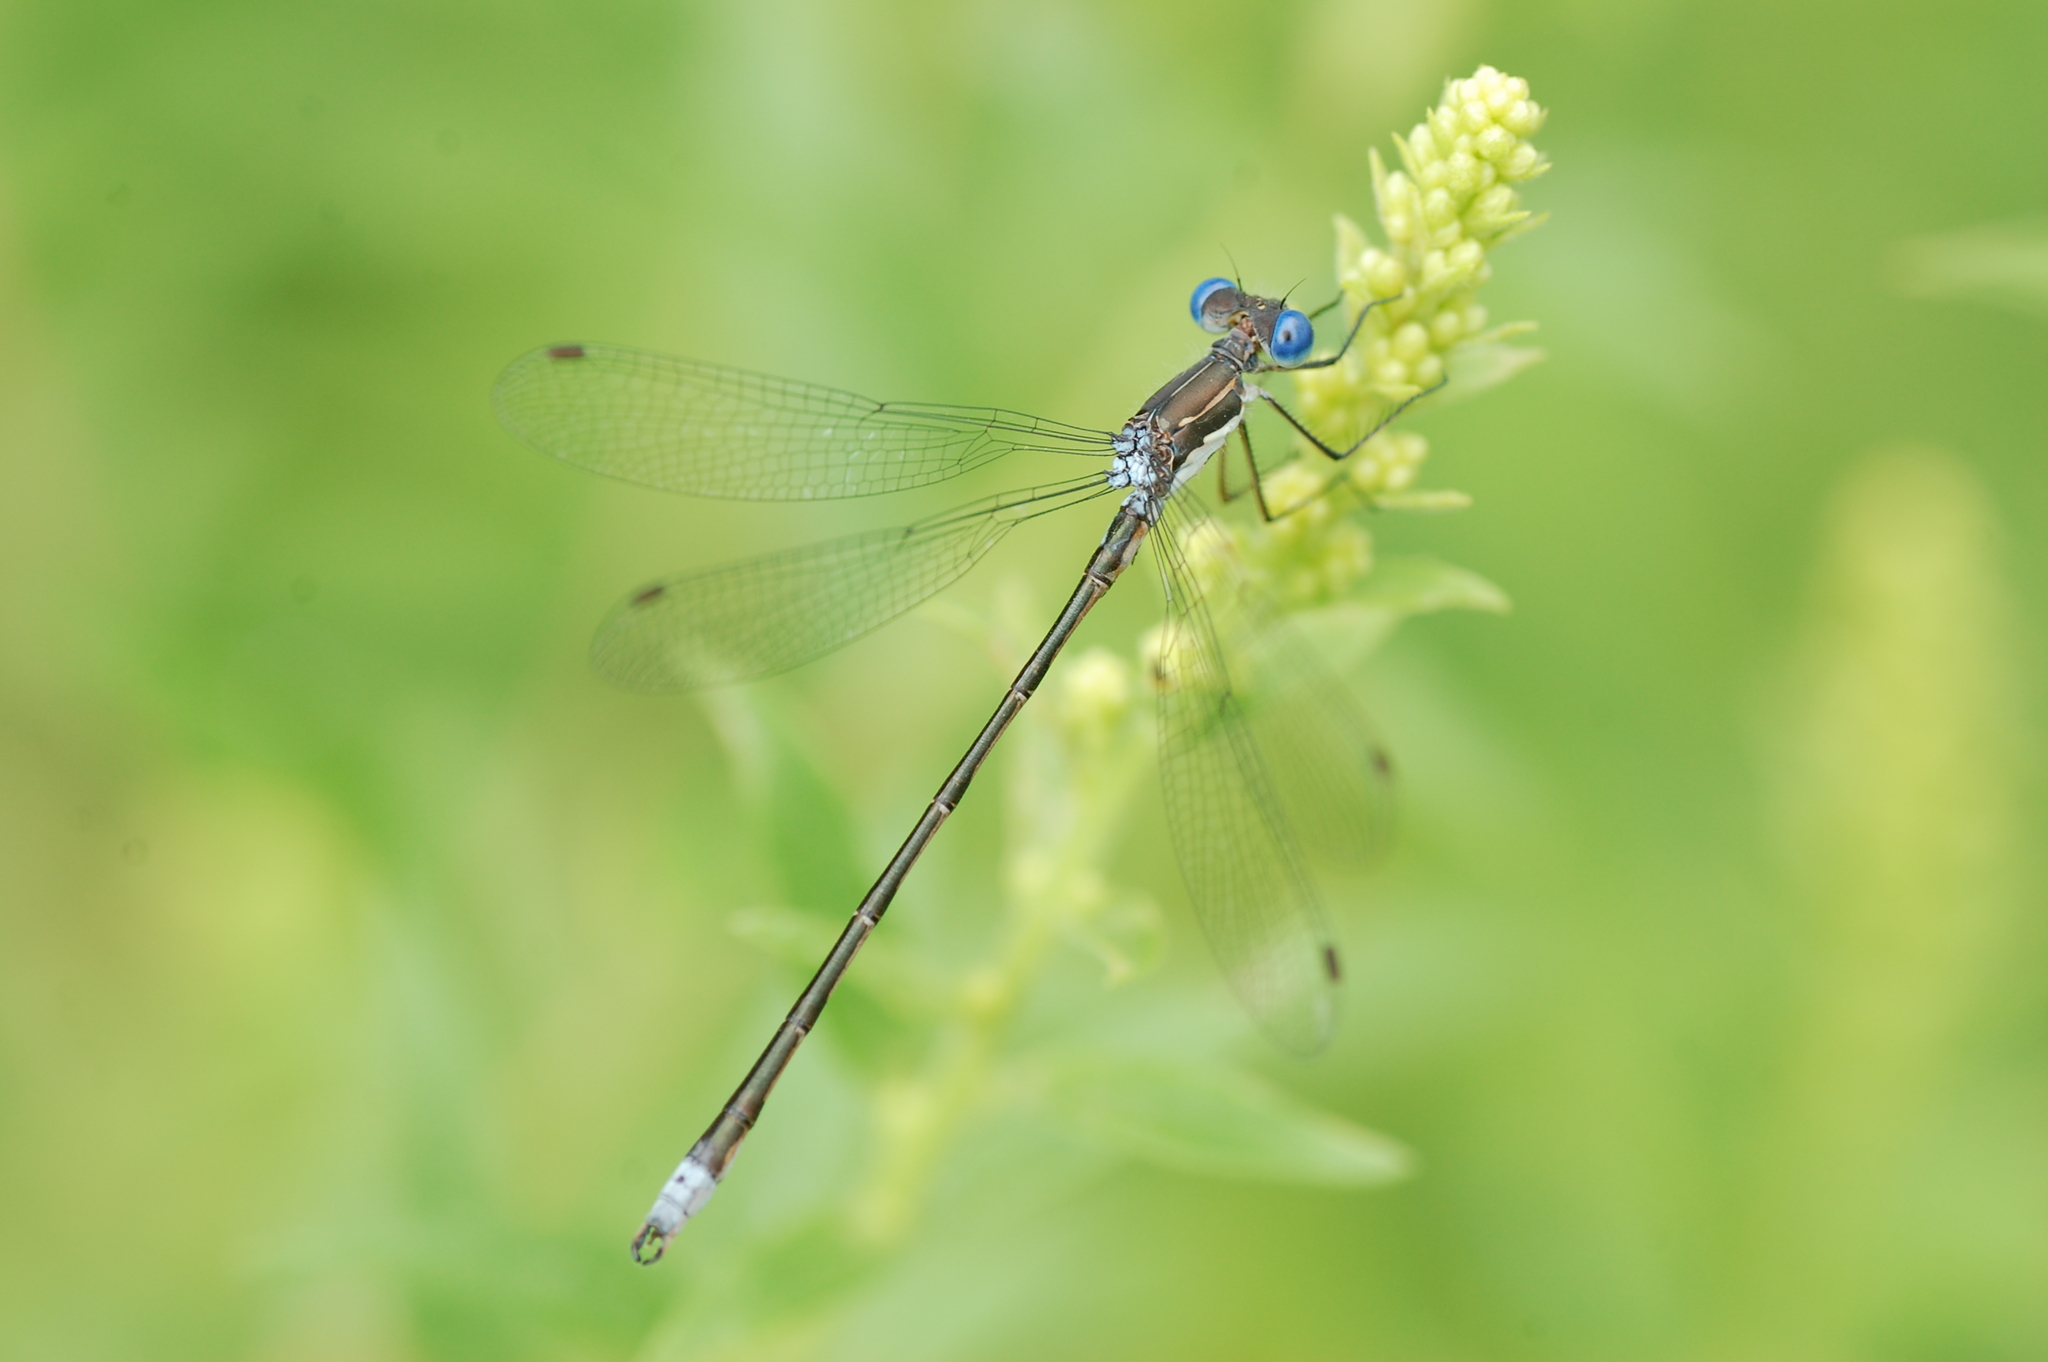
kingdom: Animalia
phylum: Arthropoda
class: Insecta
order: Odonata
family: Lestidae
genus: Lestes
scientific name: Lestes congener
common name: Spotted spreadwing
